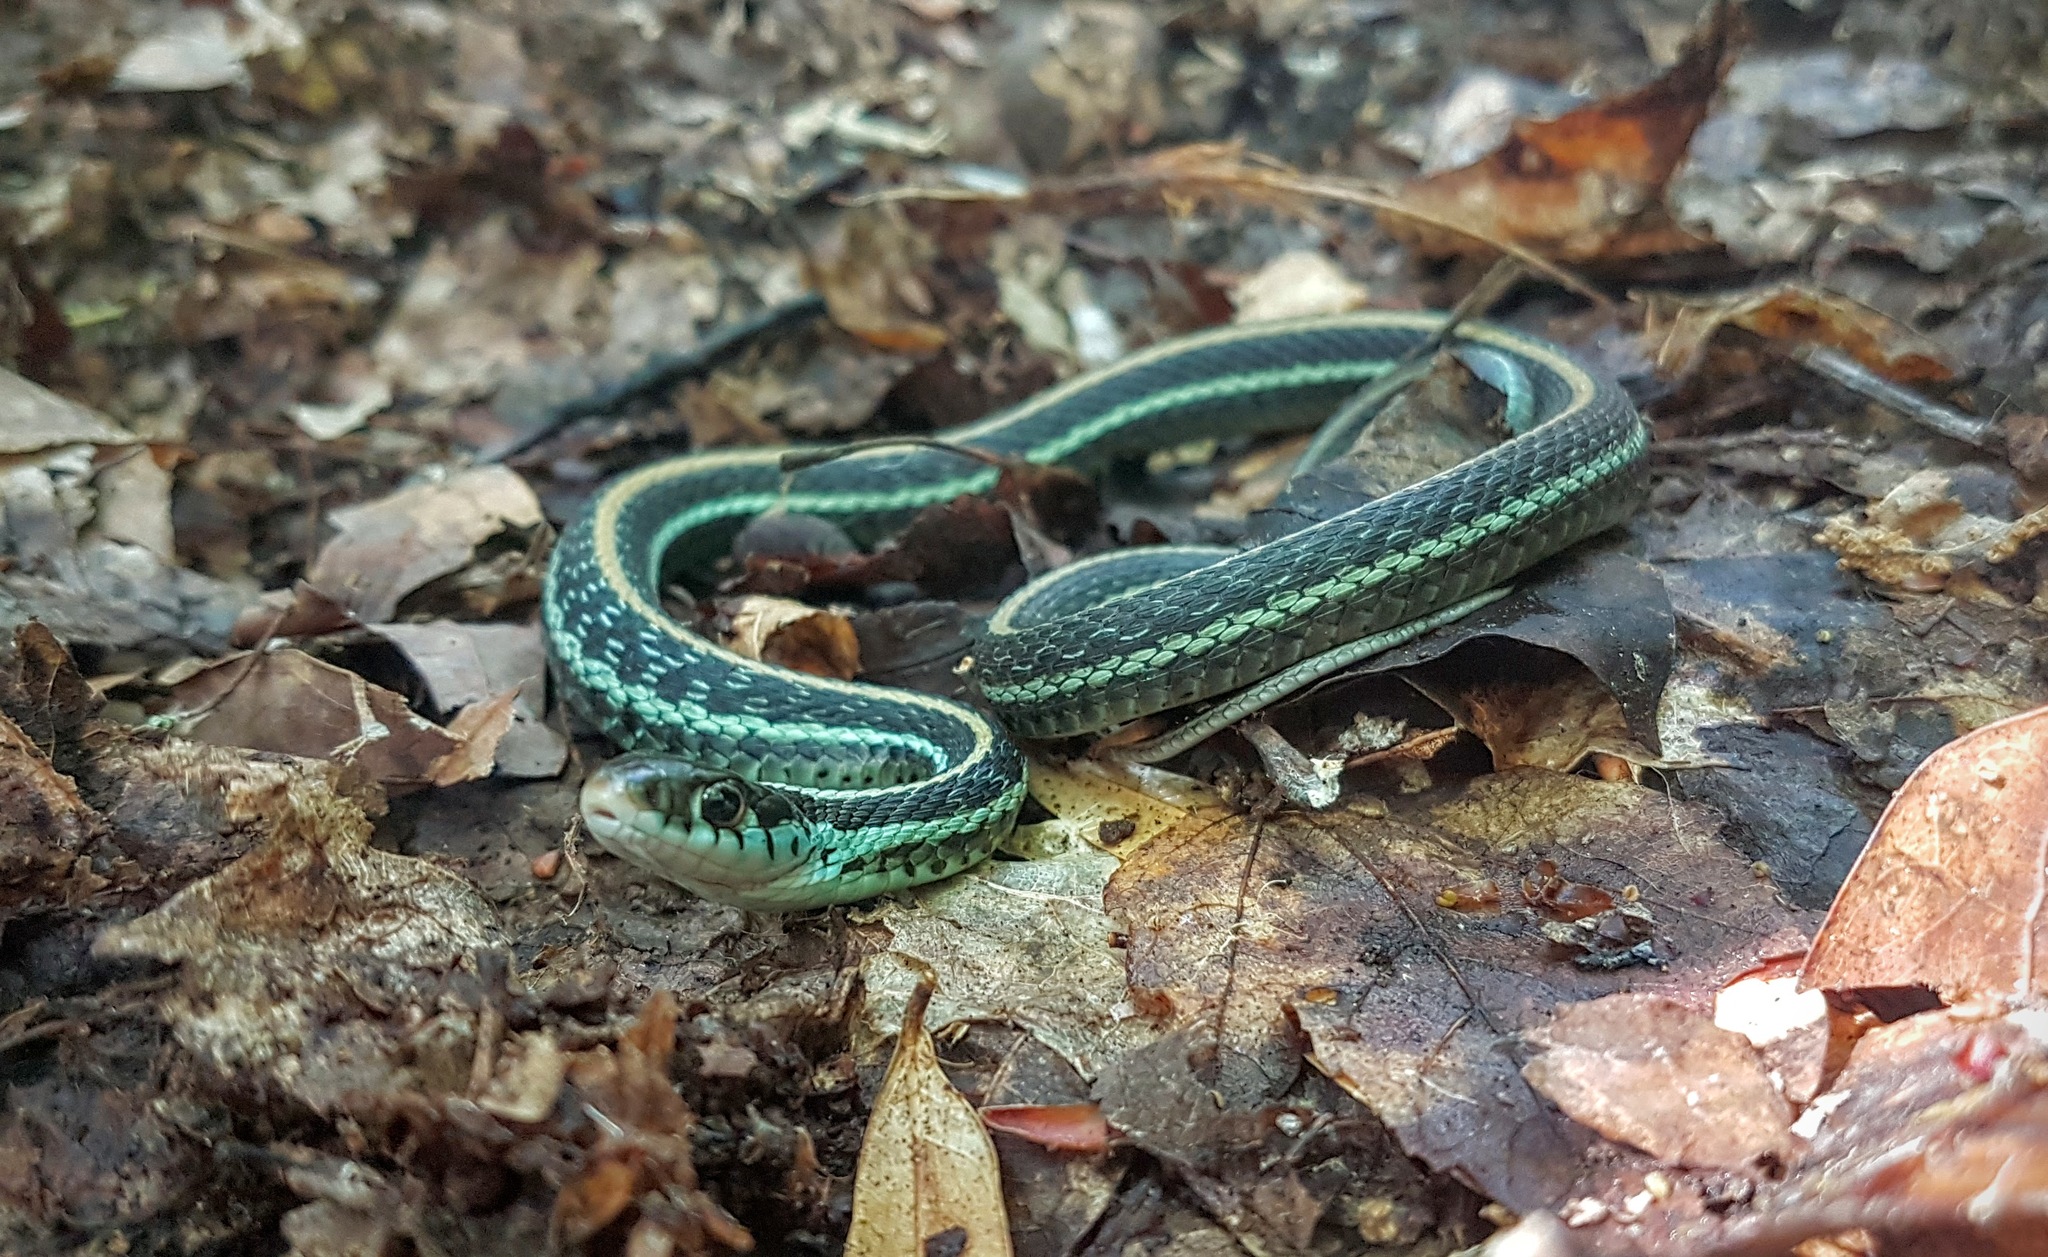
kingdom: Animalia
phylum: Chordata
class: Squamata
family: Colubridae
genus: Thamnophis
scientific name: Thamnophis sirtalis
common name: Common garter snake
